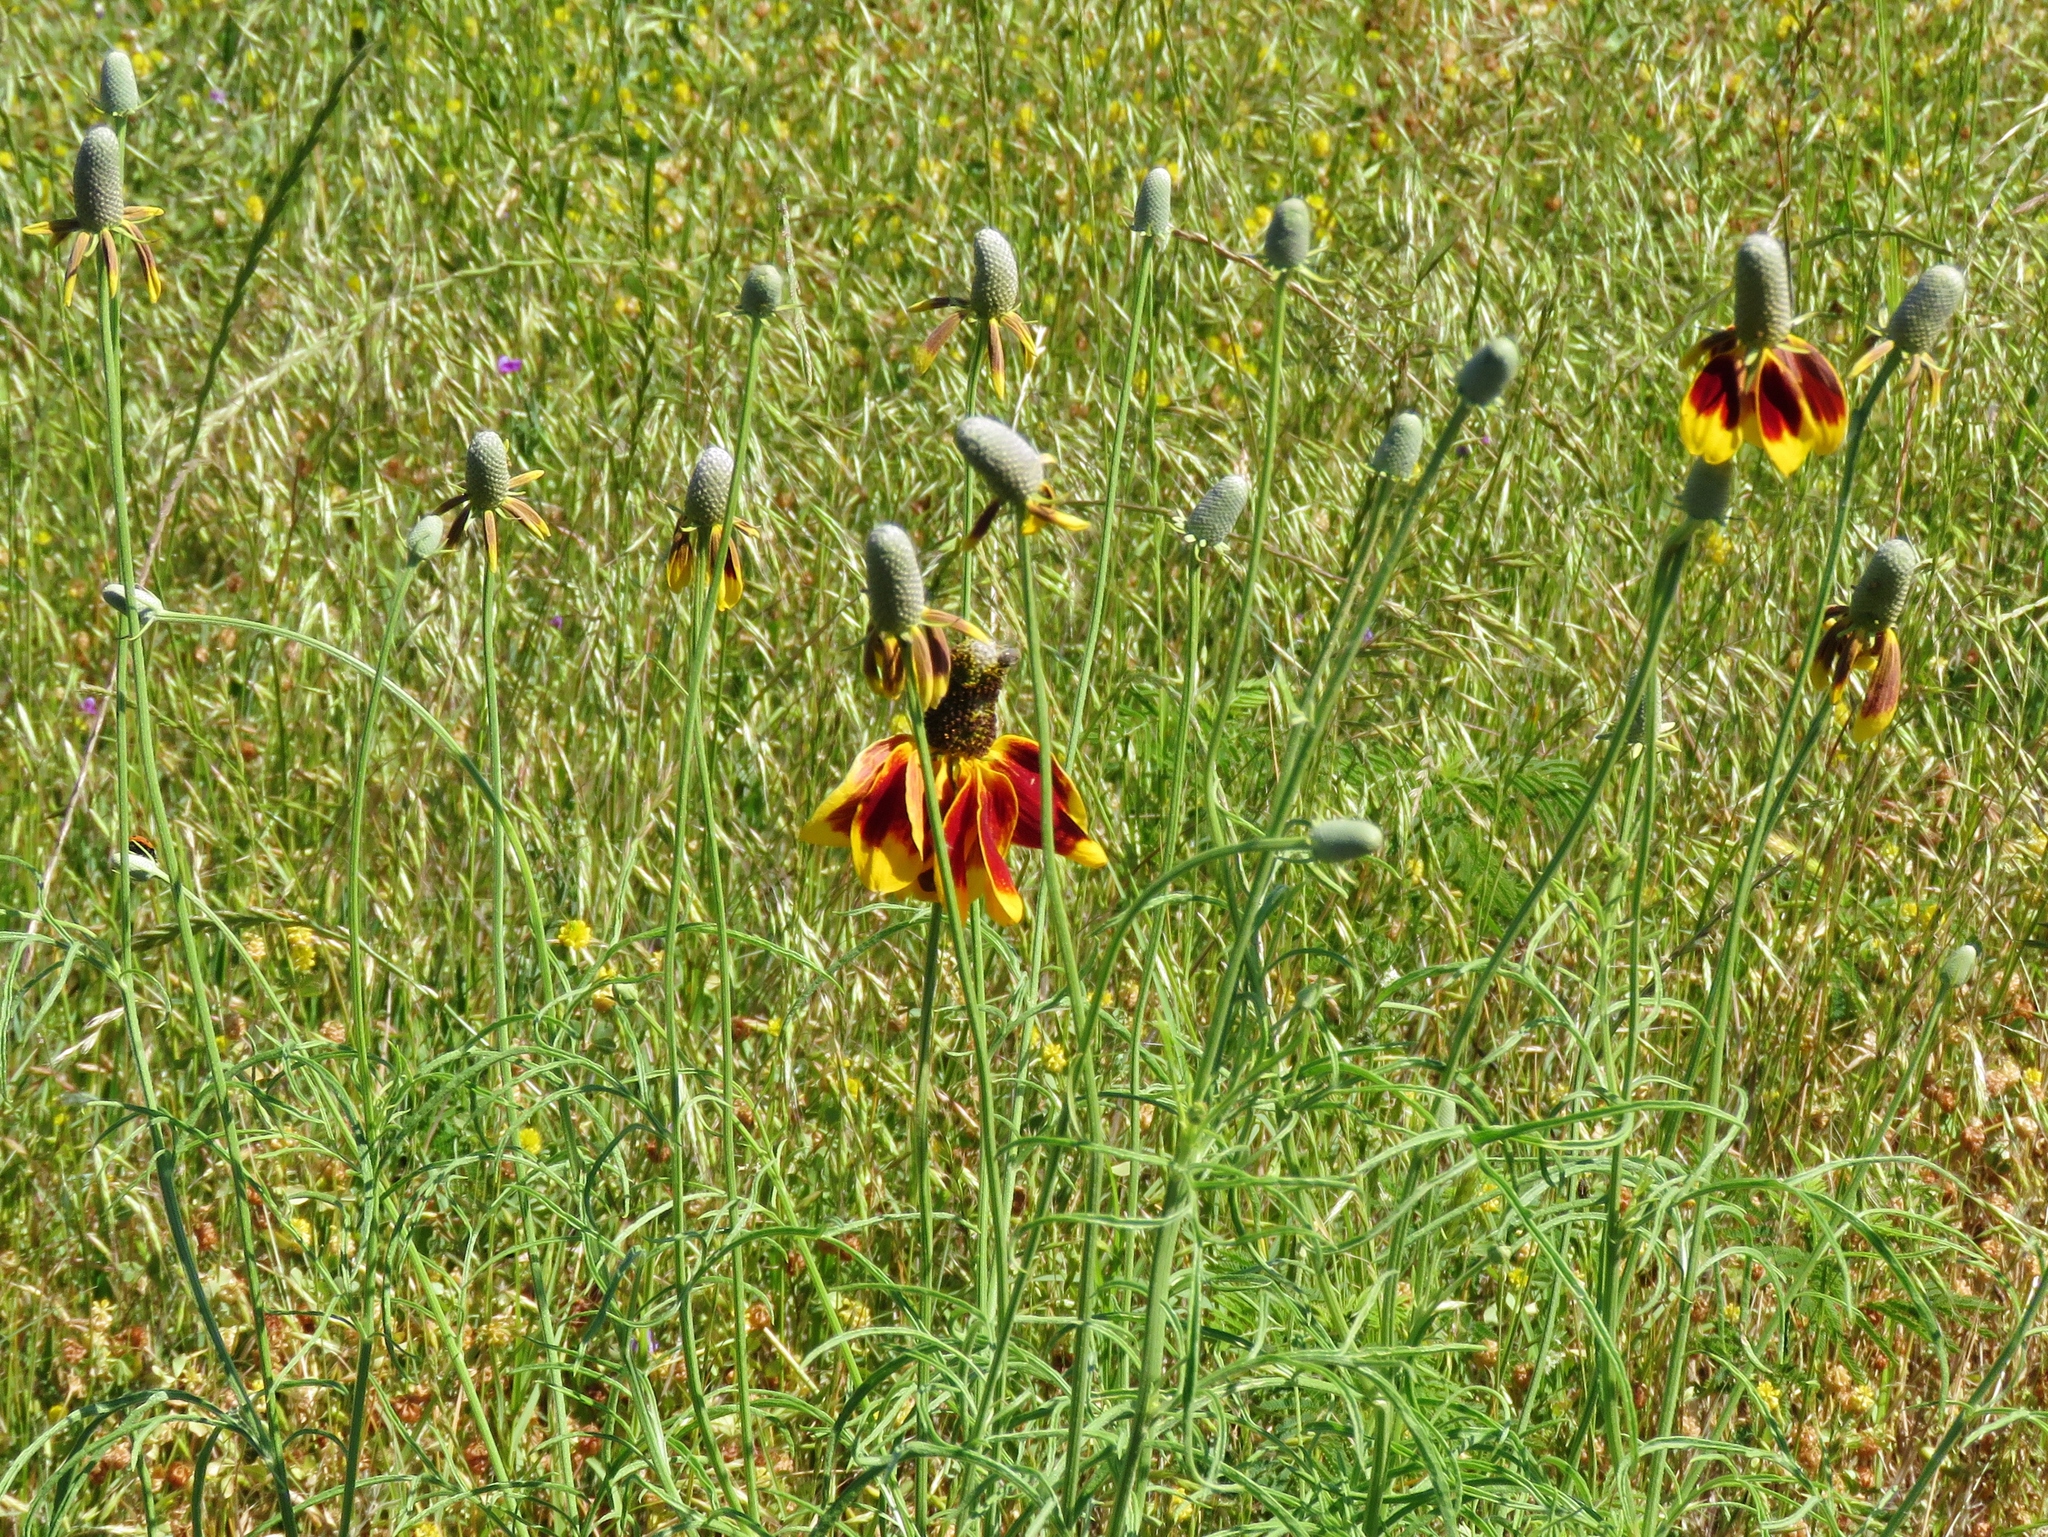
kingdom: Plantae
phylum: Tracheophyta
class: Magnoliopsida
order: Asterales
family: Asteraceae
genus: Ratibida
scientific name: Ratibida columnifera
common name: Prairie coneflower
